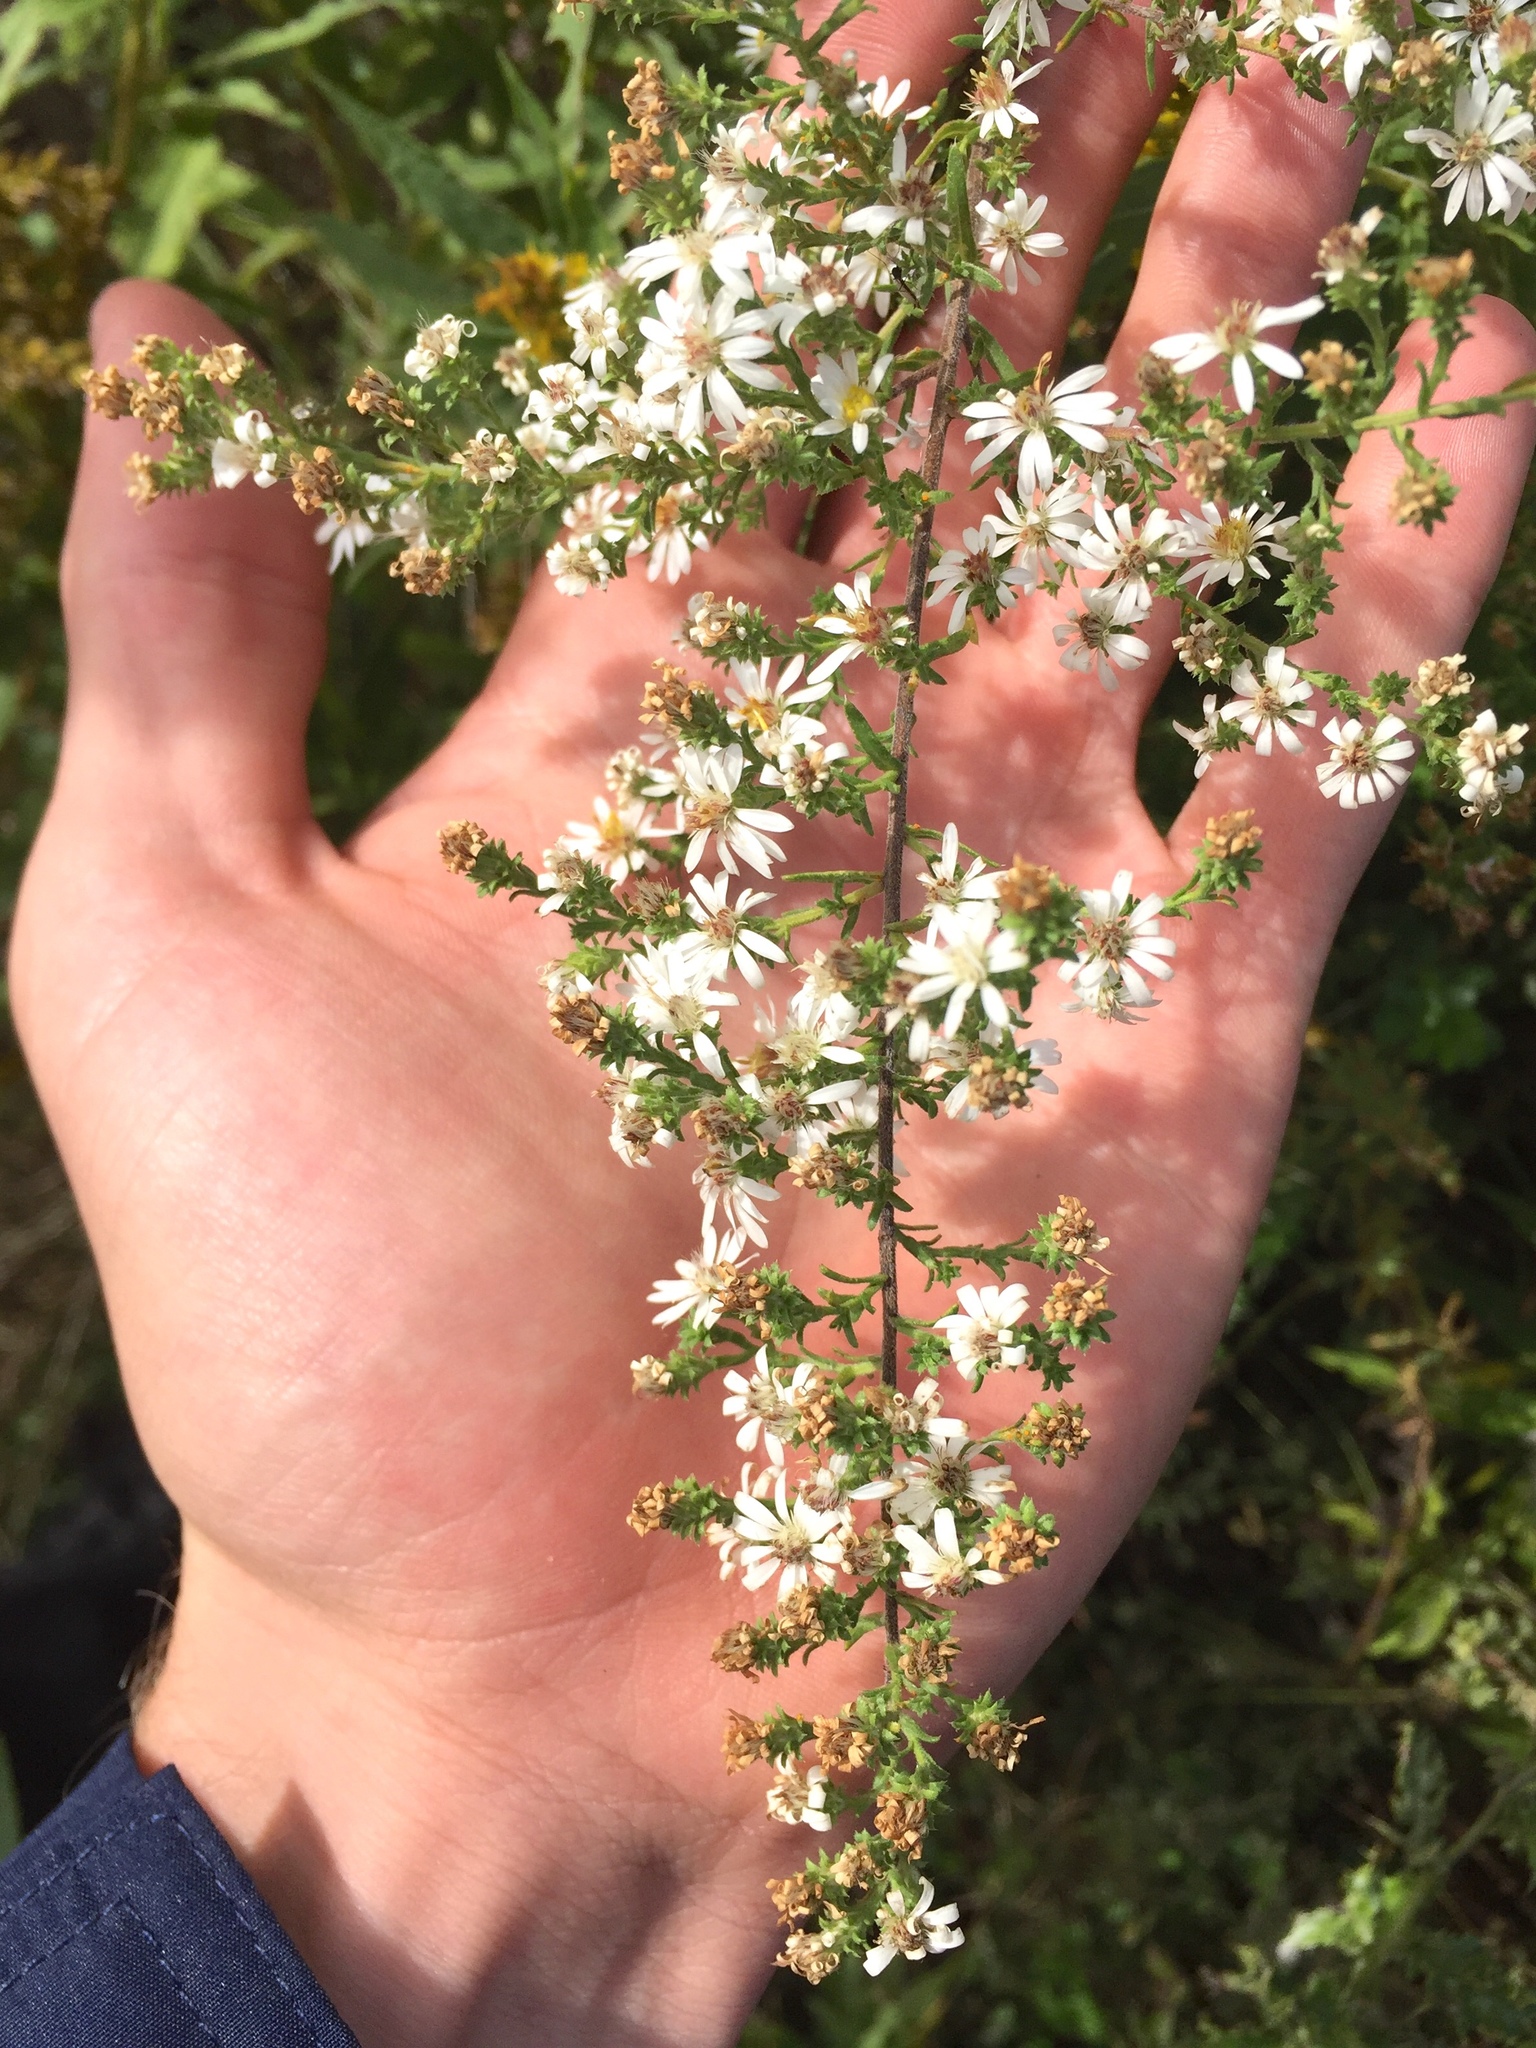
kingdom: Plantae
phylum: Tracheophyta
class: Magnoliopsida
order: Asterales
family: Asteraceae
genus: Symphyotrichum
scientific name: Symphyotrichum ericoides
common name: Heath aster
